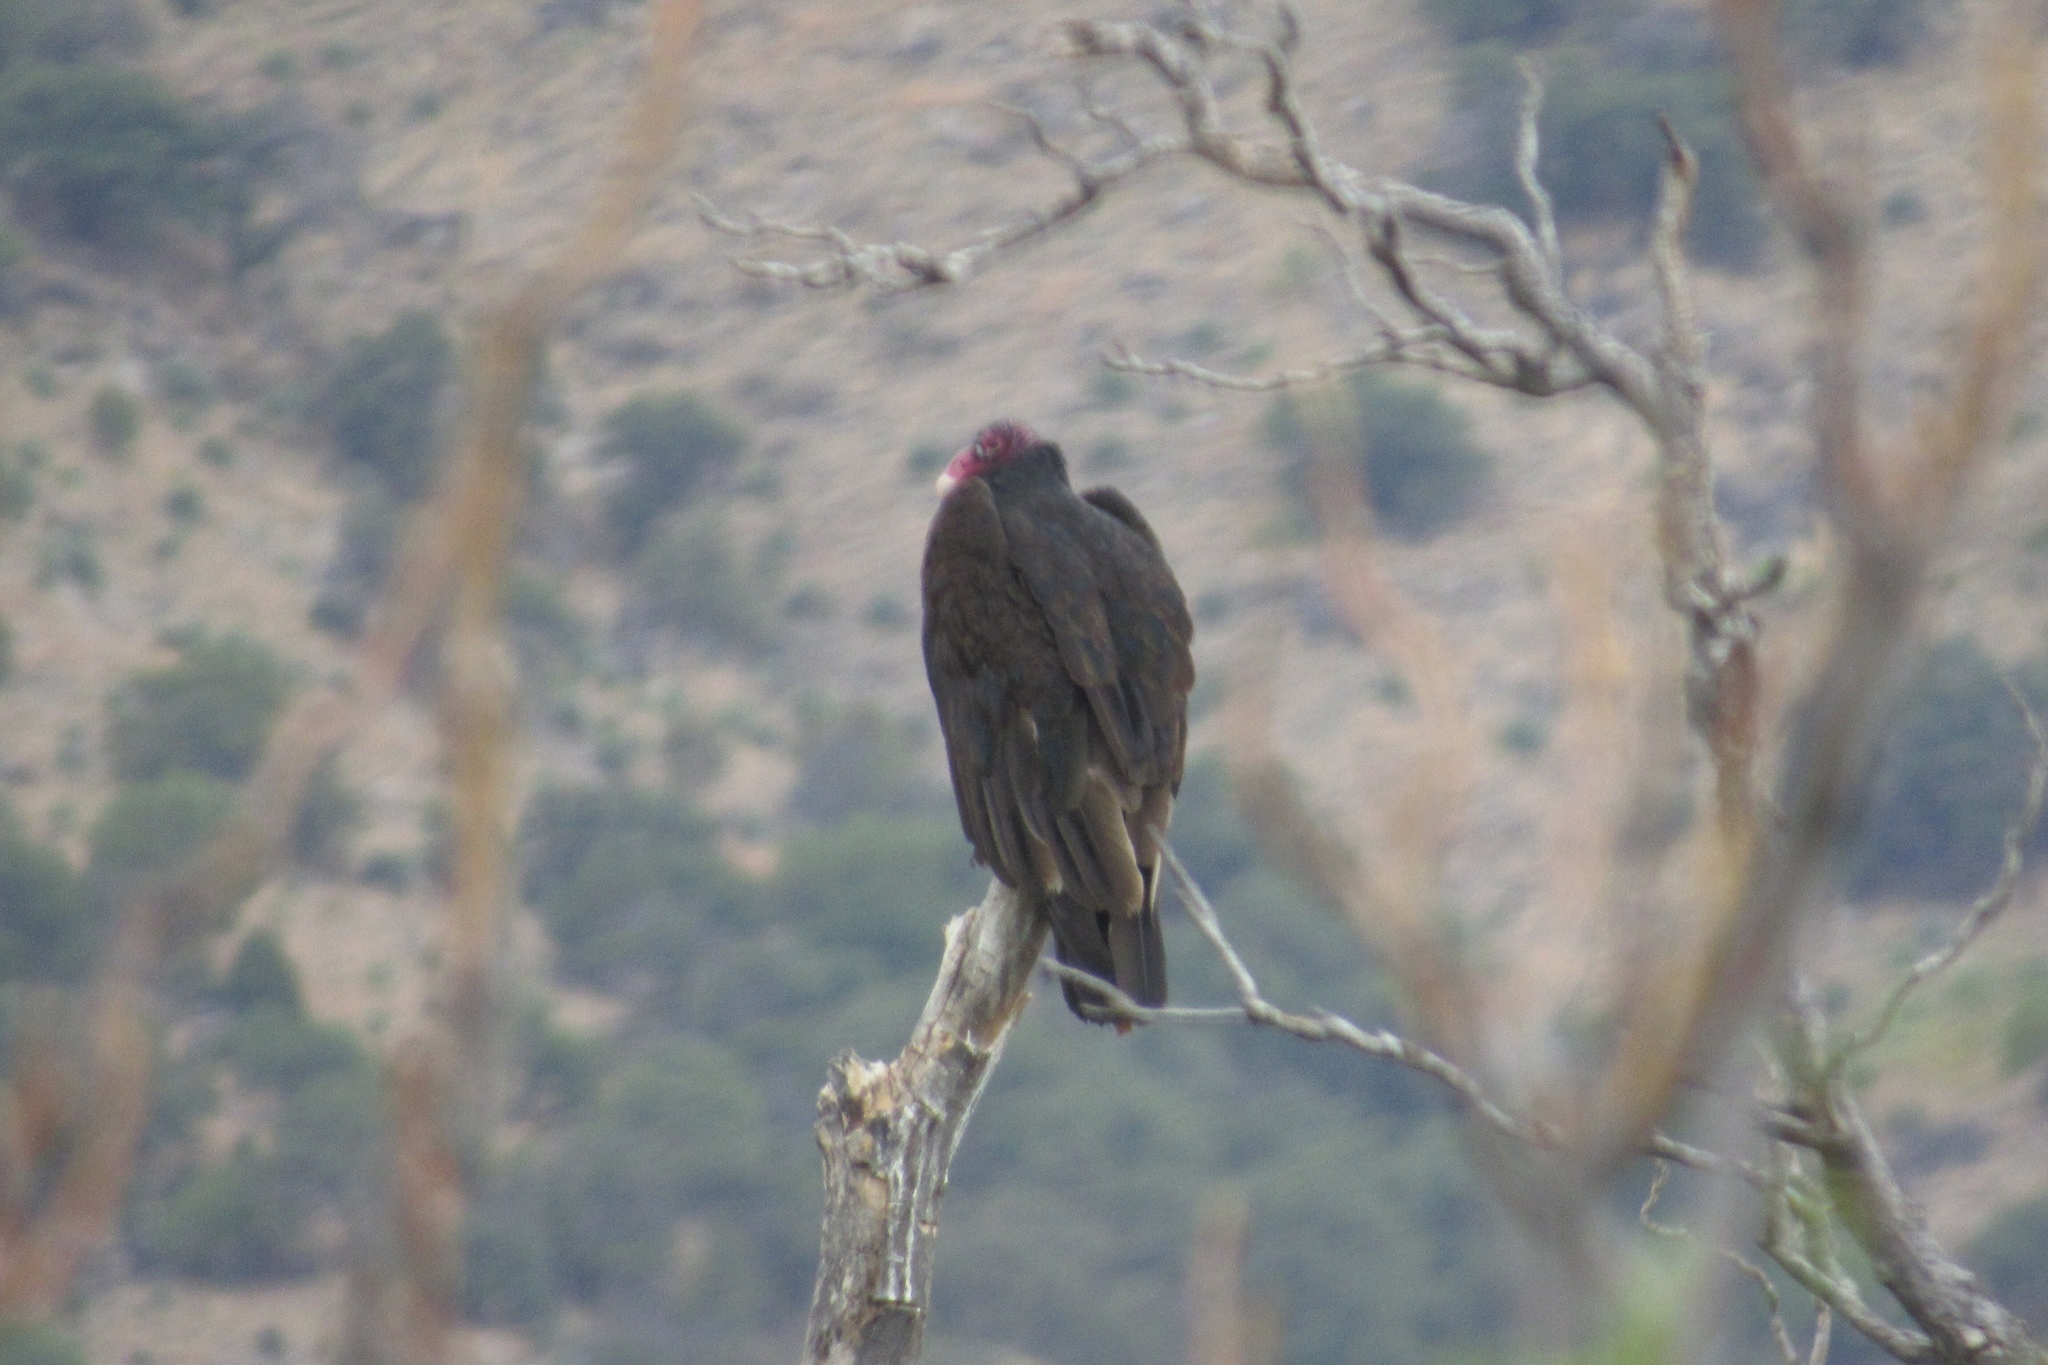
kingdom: Animalia
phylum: Chordata
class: Aves
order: Accipitriformes
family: Cathartidae
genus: Cathartes
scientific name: Cathartes aura
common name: Turkey vulture
